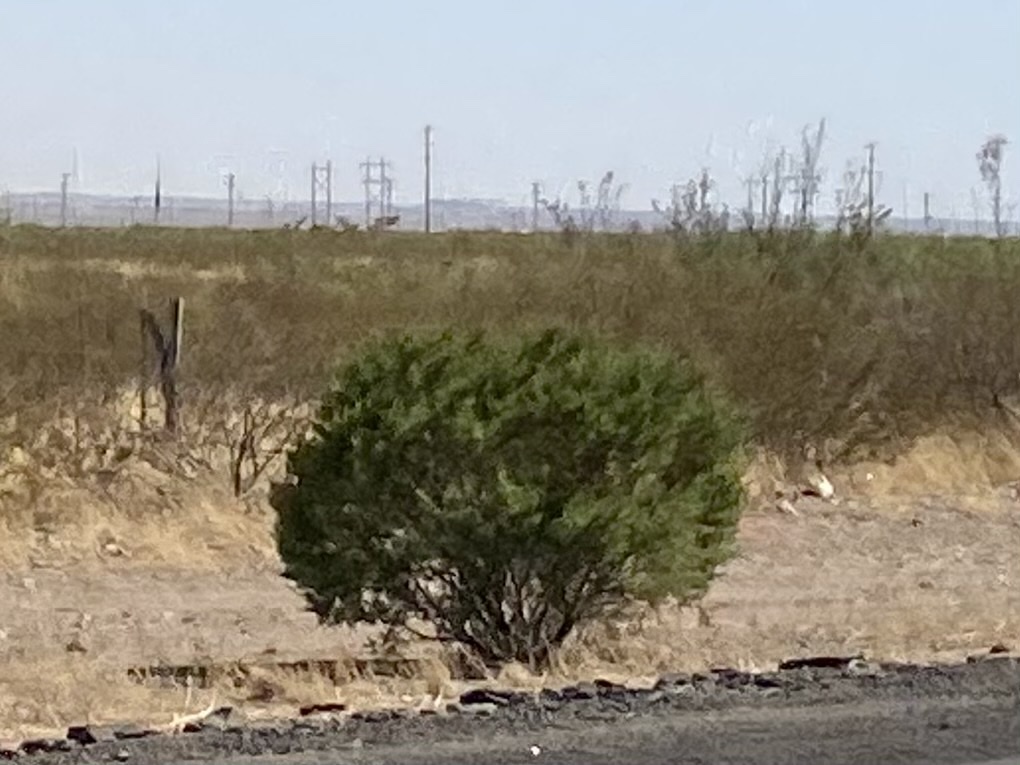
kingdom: Plantae
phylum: Tracheophyta
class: Magnoliopsida
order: Zygophyllales
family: Zygophyllaceae
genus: Larrea
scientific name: Larrea tridentata
